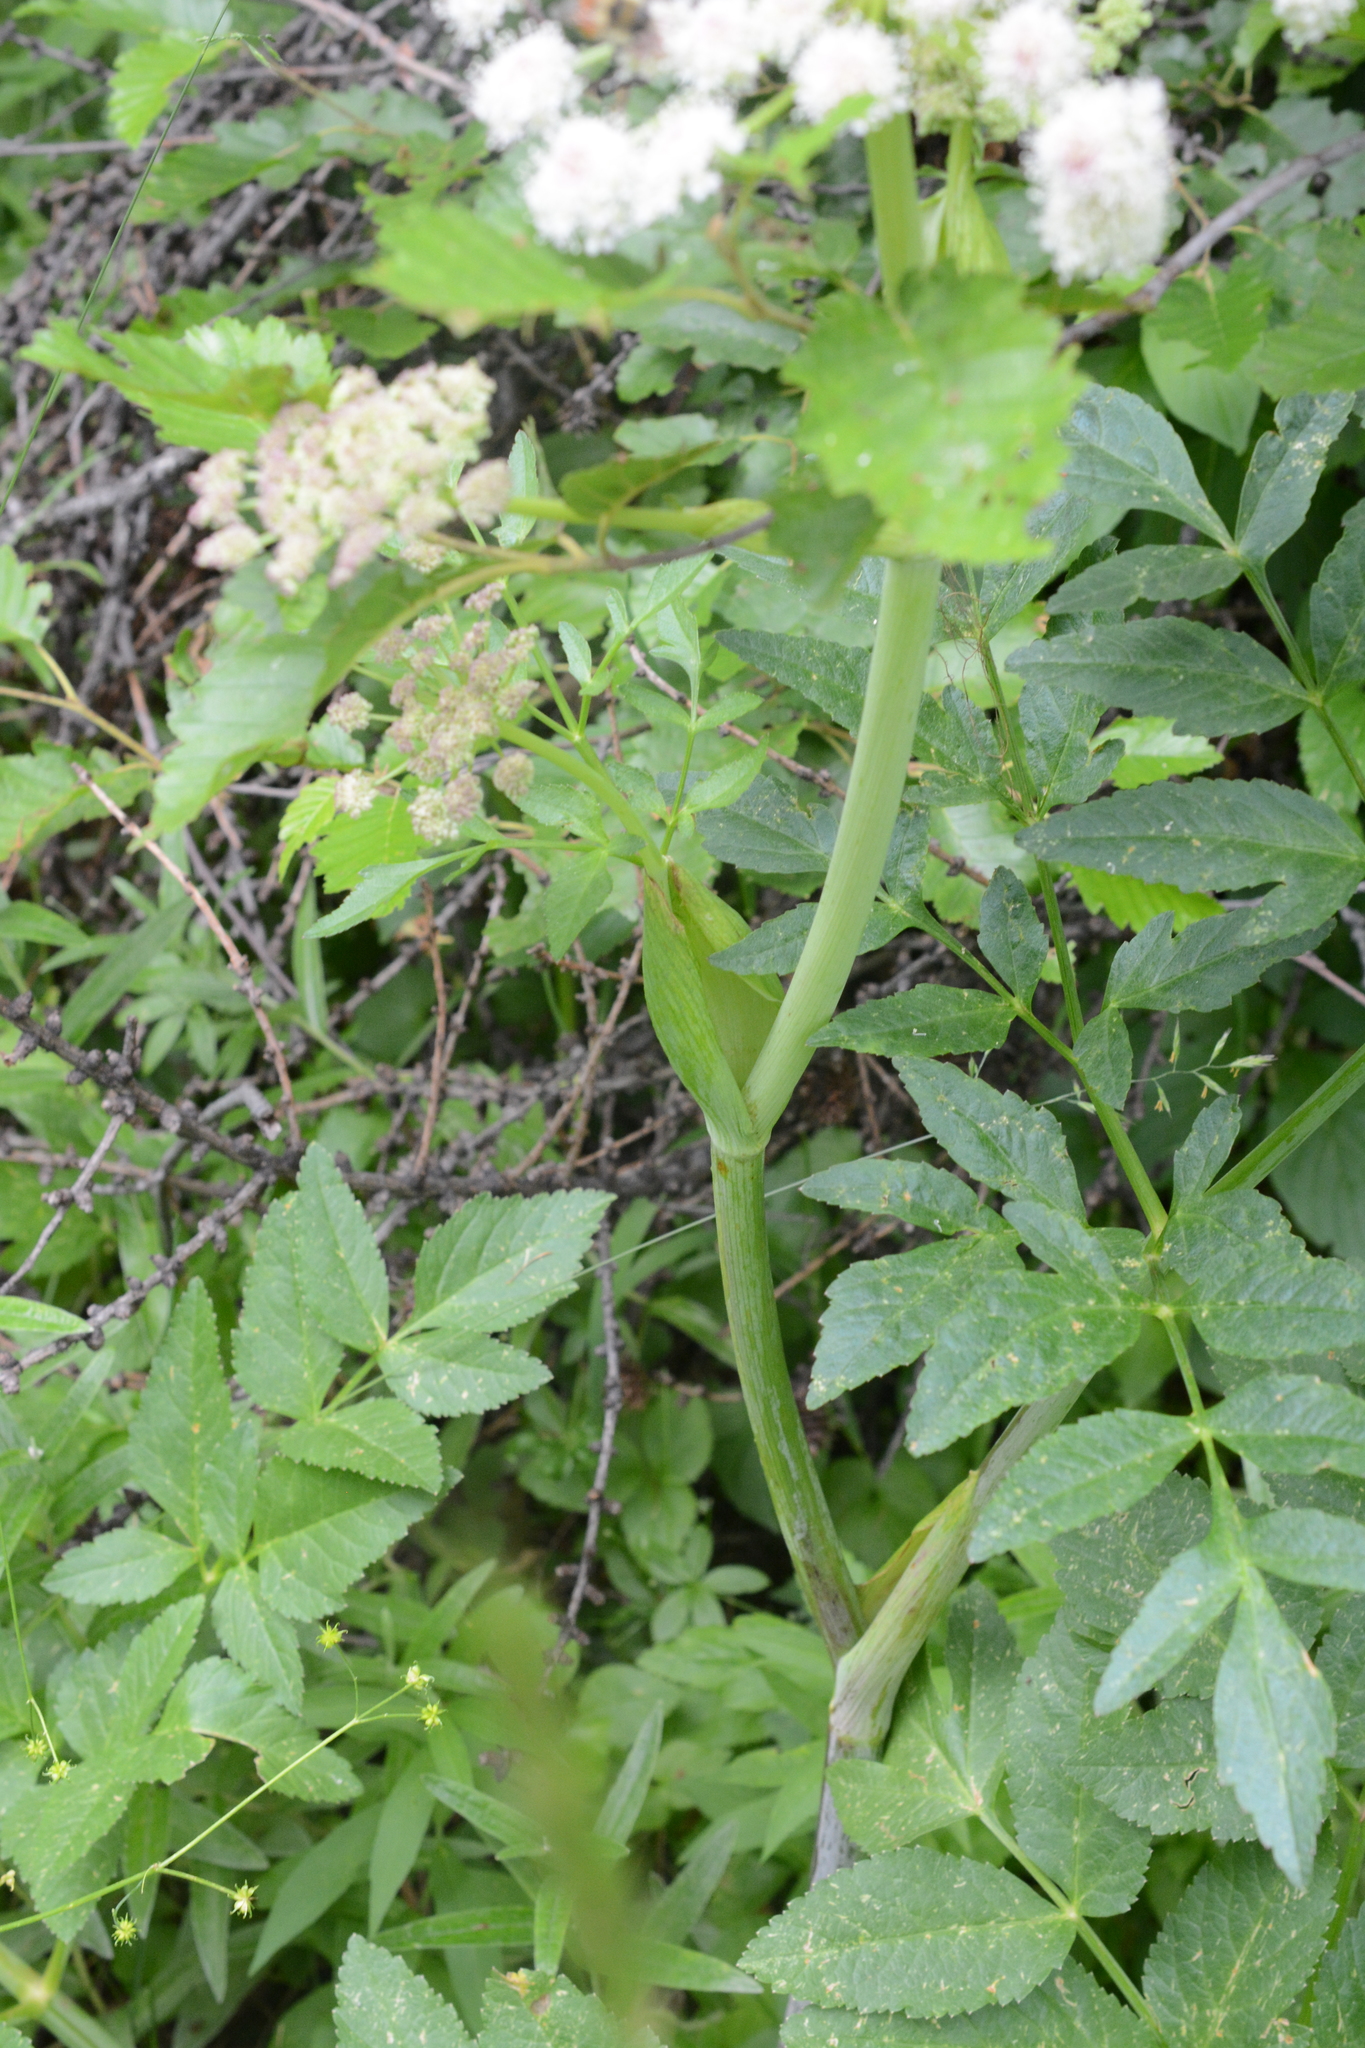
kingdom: Plantae
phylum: Tracheophyta
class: Magnoliopsida
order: Apiales
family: Apiaceae
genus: Angelica
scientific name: Angelica arguta
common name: Lyall's angelica
